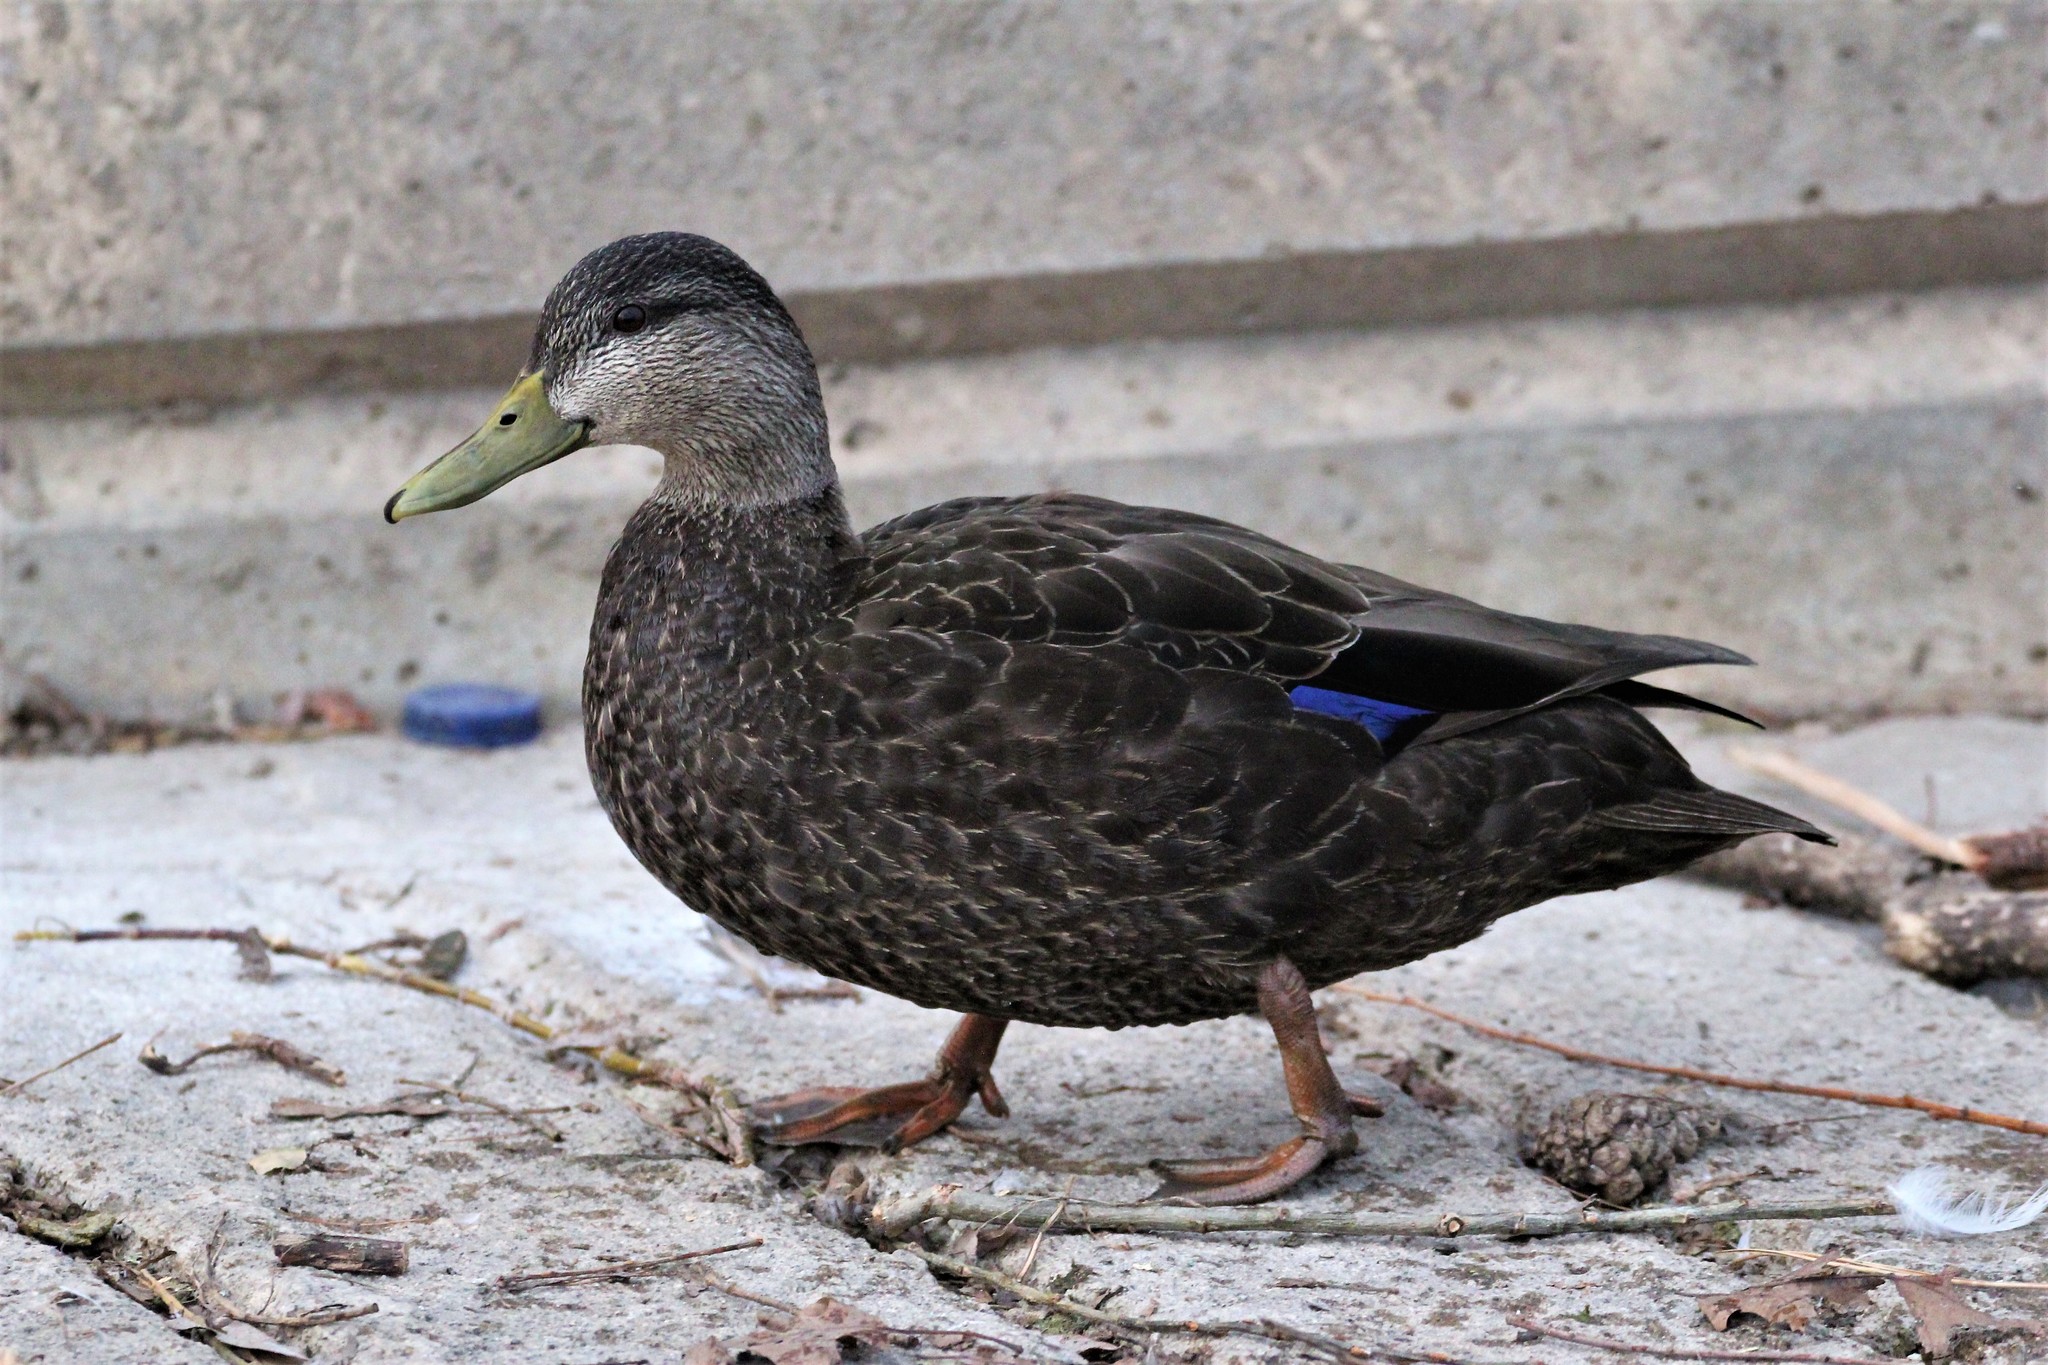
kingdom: Animalia
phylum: Chordata
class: Aves
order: Anseriformes
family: Anatidae
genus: Anas
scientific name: Anas rubripes
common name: American black duck
